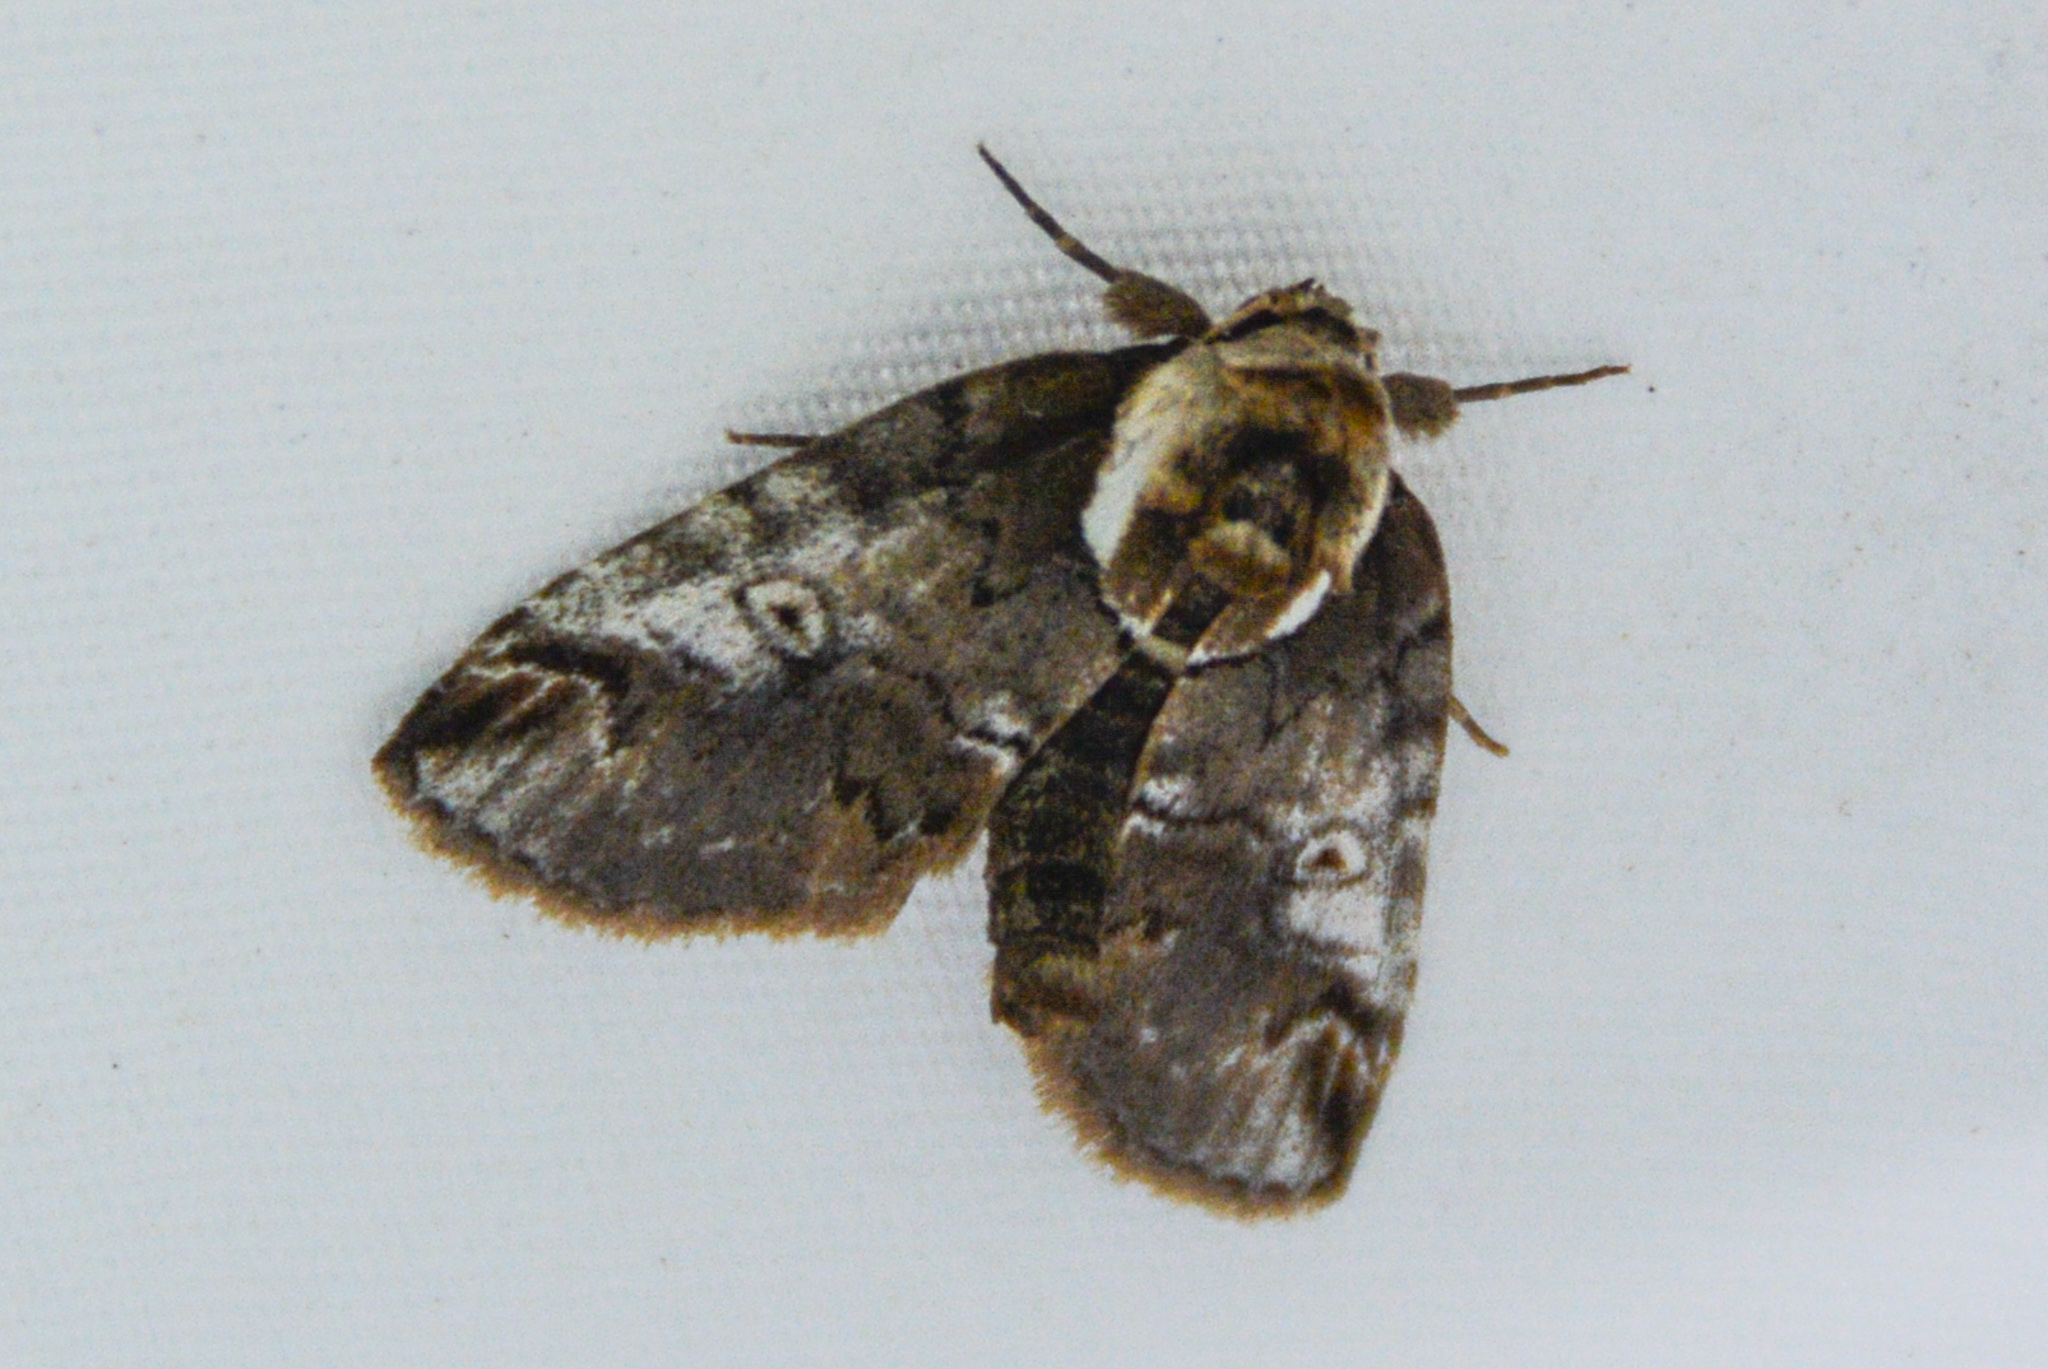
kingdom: Animalia
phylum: Arthropoda
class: Insecta
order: Lepidoptera
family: Nolidae
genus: Baileya
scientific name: Baileya ophthalmica
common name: Eyed baileya moth
